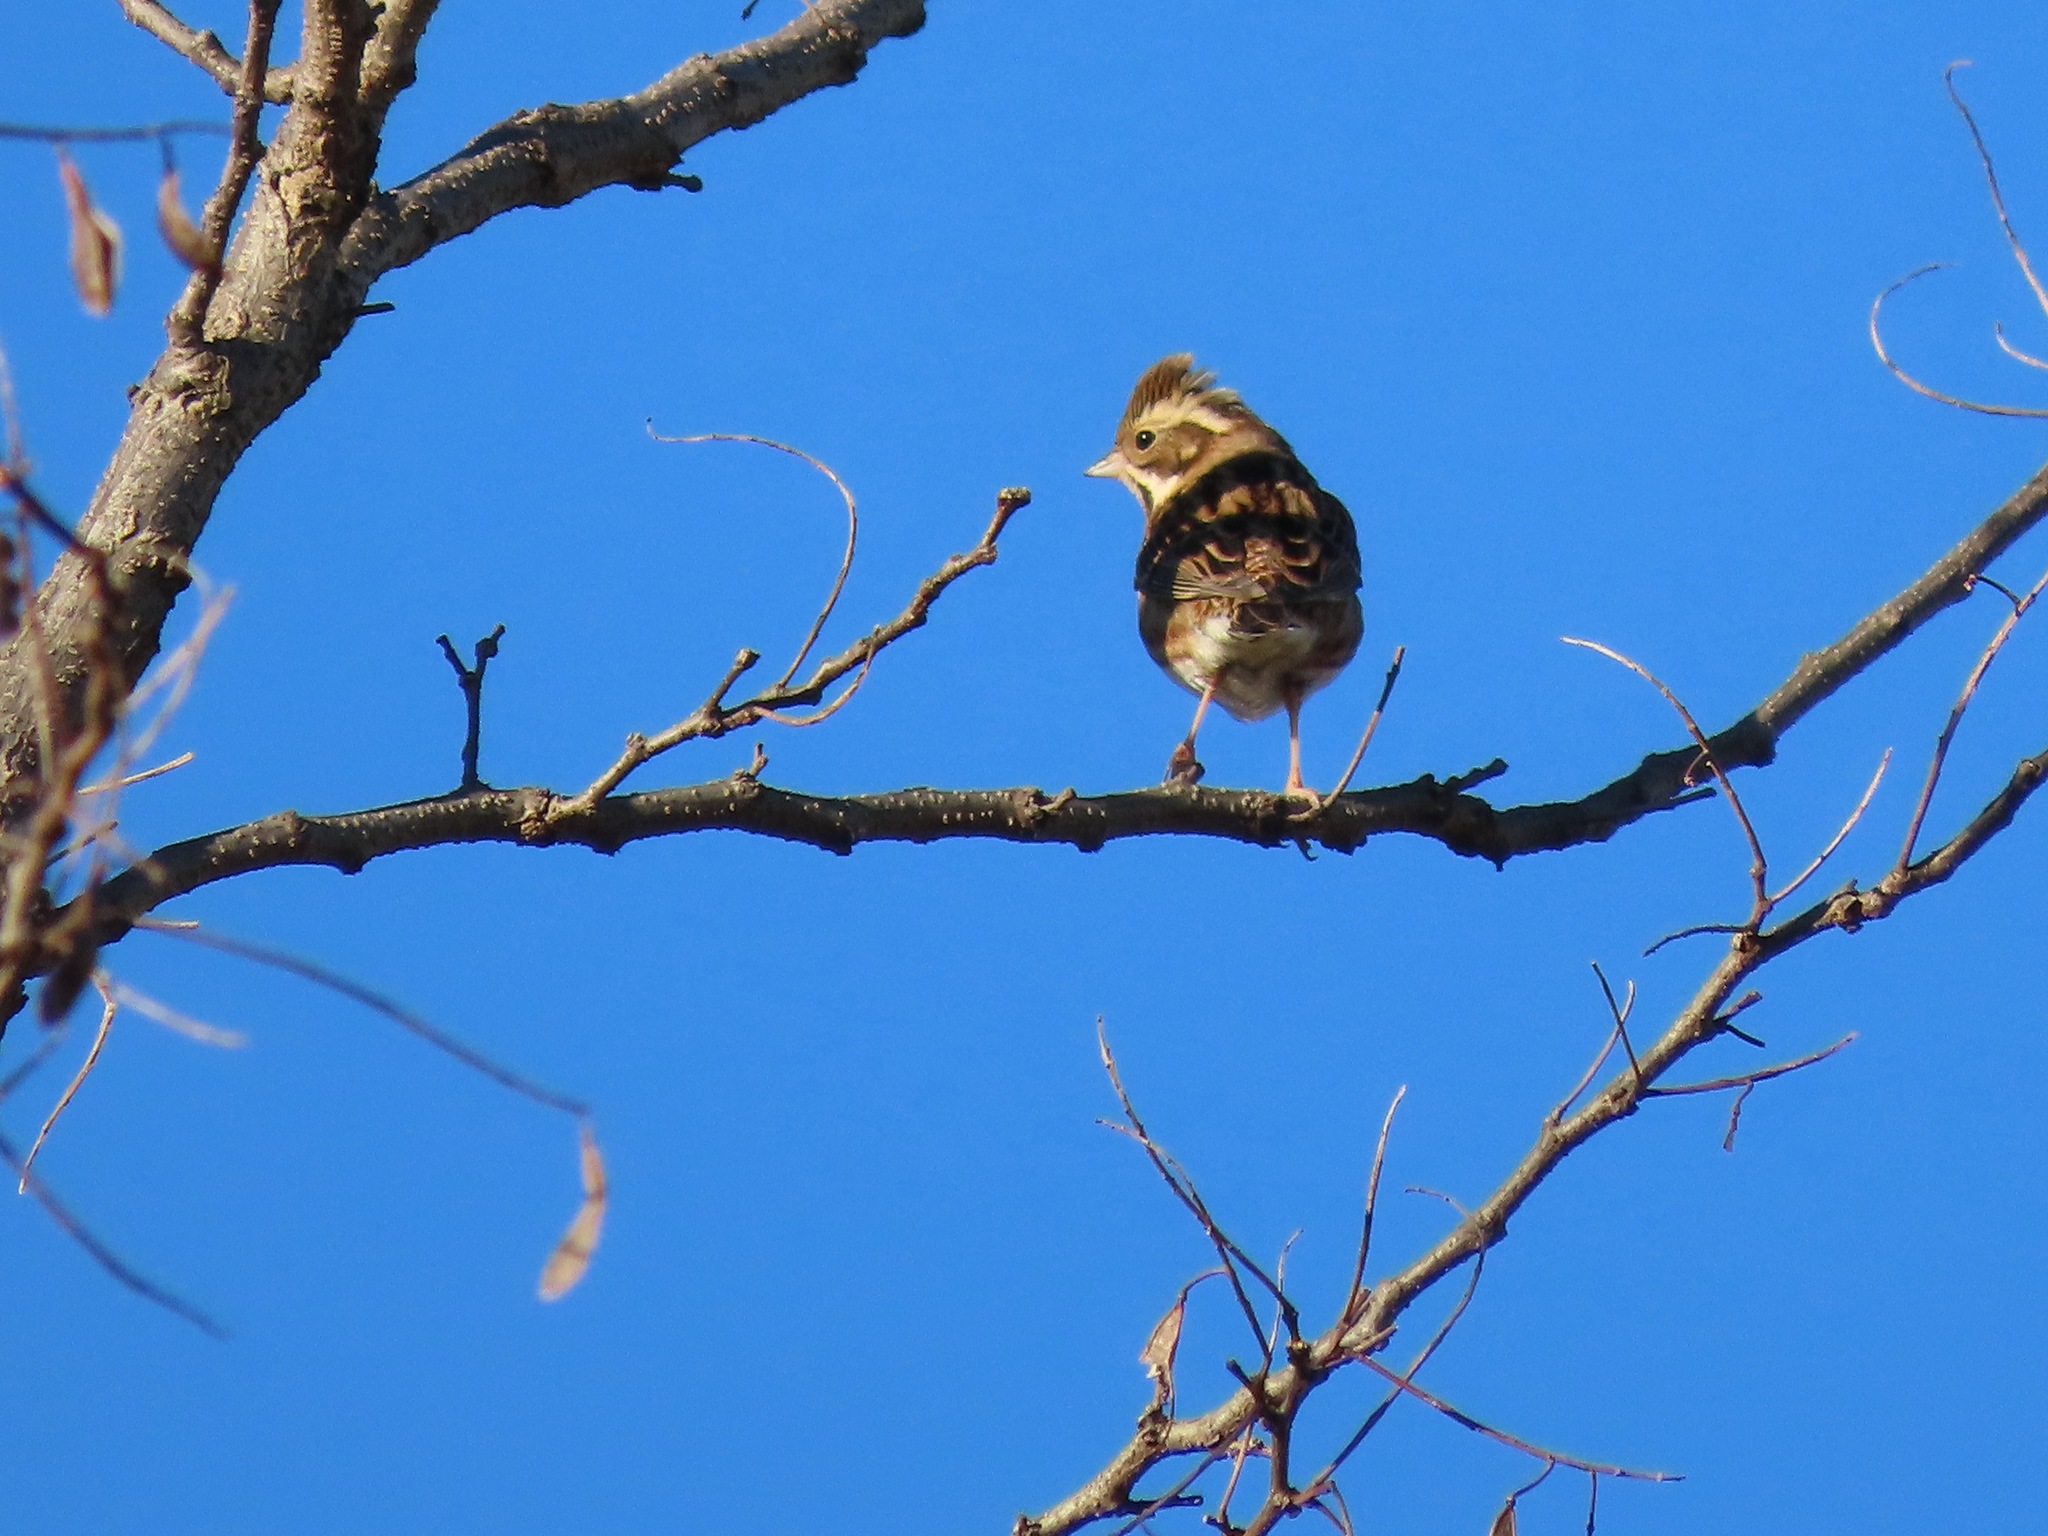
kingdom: Animalia
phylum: Chordata
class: Aves
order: Passeriformes
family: Emberizidae
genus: Emberiza
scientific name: Emberiza rustica
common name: Rustic bunting
